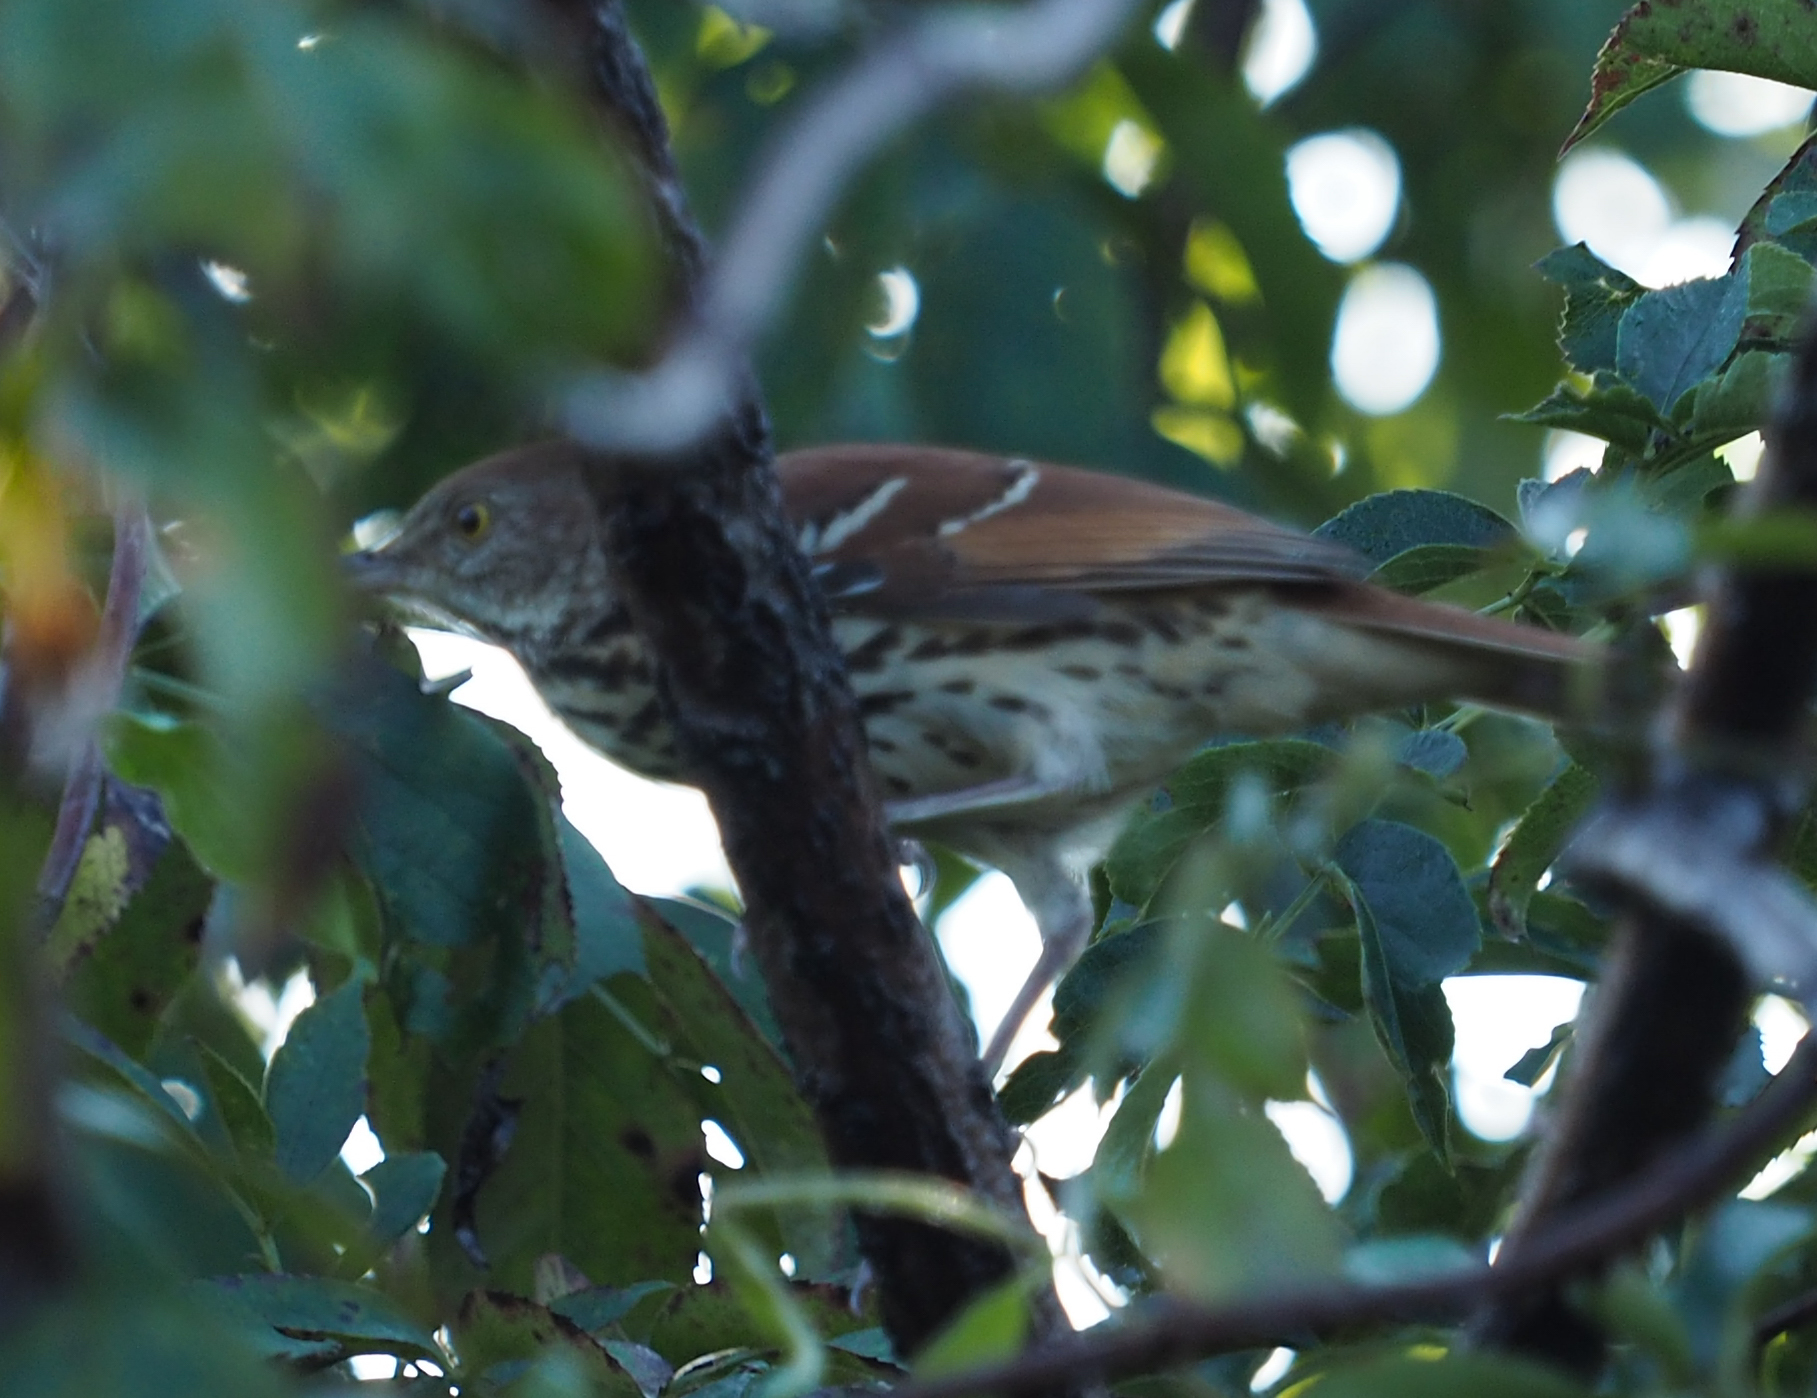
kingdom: Animalia
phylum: Chordata
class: Aves
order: Passeriformes
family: Mimidae
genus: Toxostoma
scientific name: Toxostoma rufum
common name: Brown thrasher
